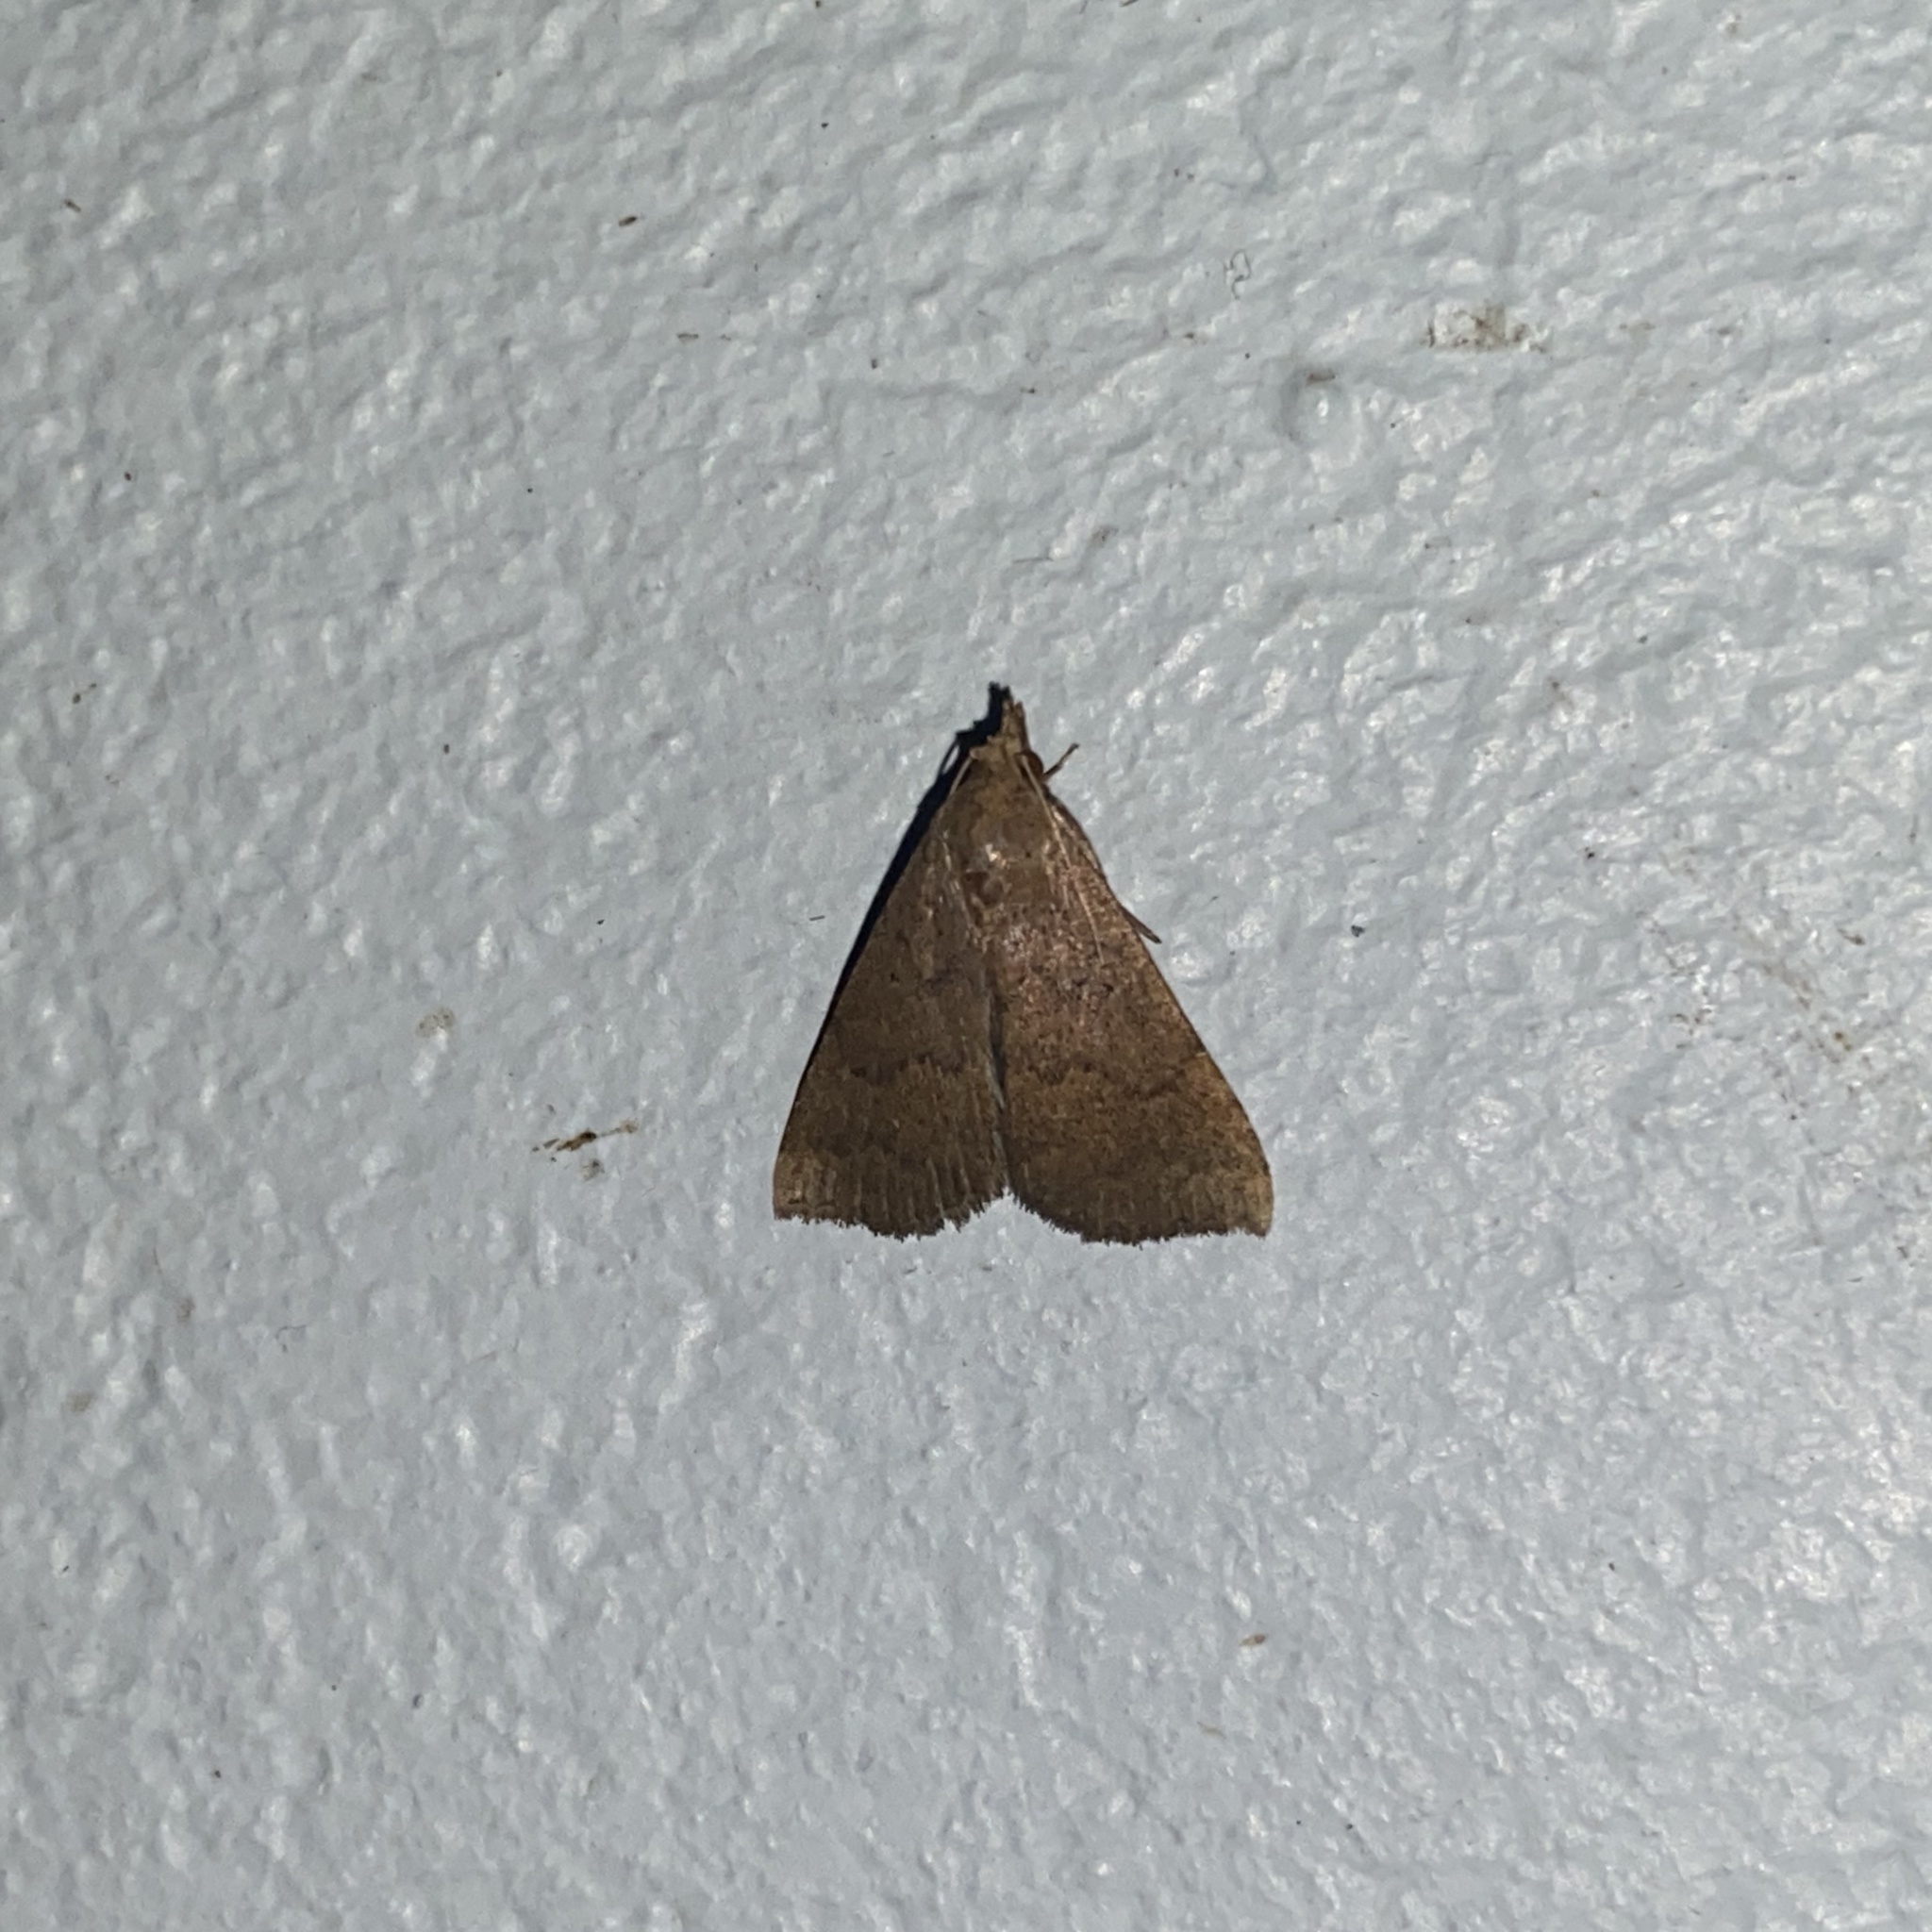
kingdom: Animalia
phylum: Arthropoda
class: Insecta
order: Lepidoptera
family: Erebidae
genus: Arugisa
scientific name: Arugisa Poena drucella
